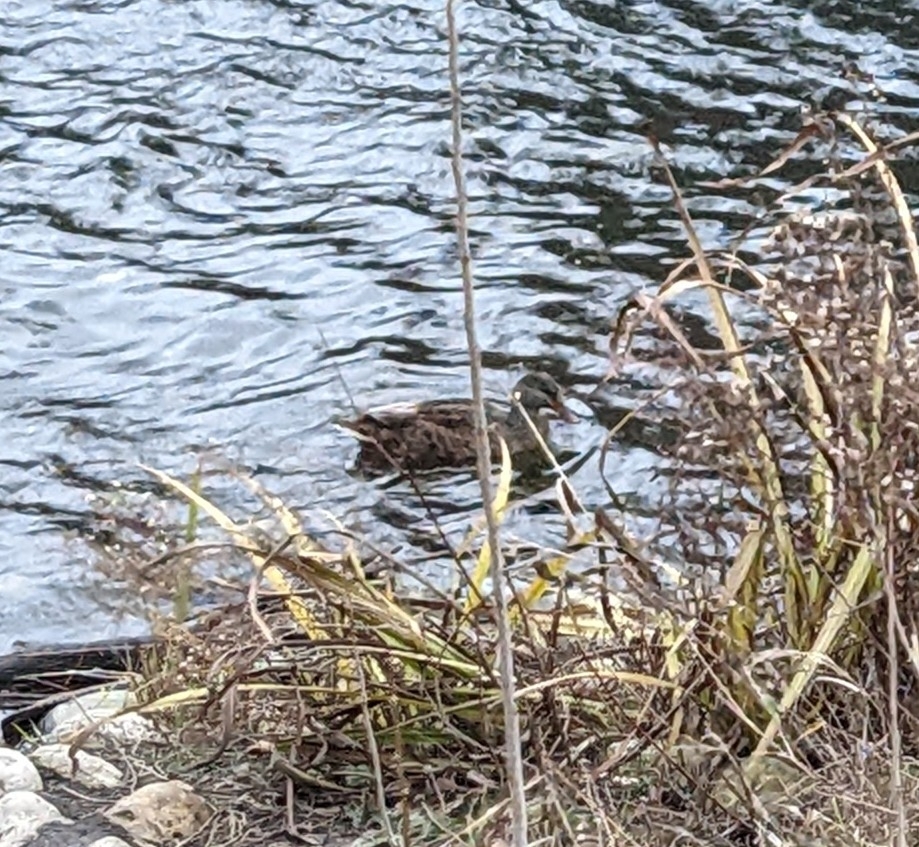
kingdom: Animalia
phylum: Chordata
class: Aves
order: Anseriformes
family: Anatidae
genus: Anas
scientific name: Anas platyrhynchos
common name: Mallard
